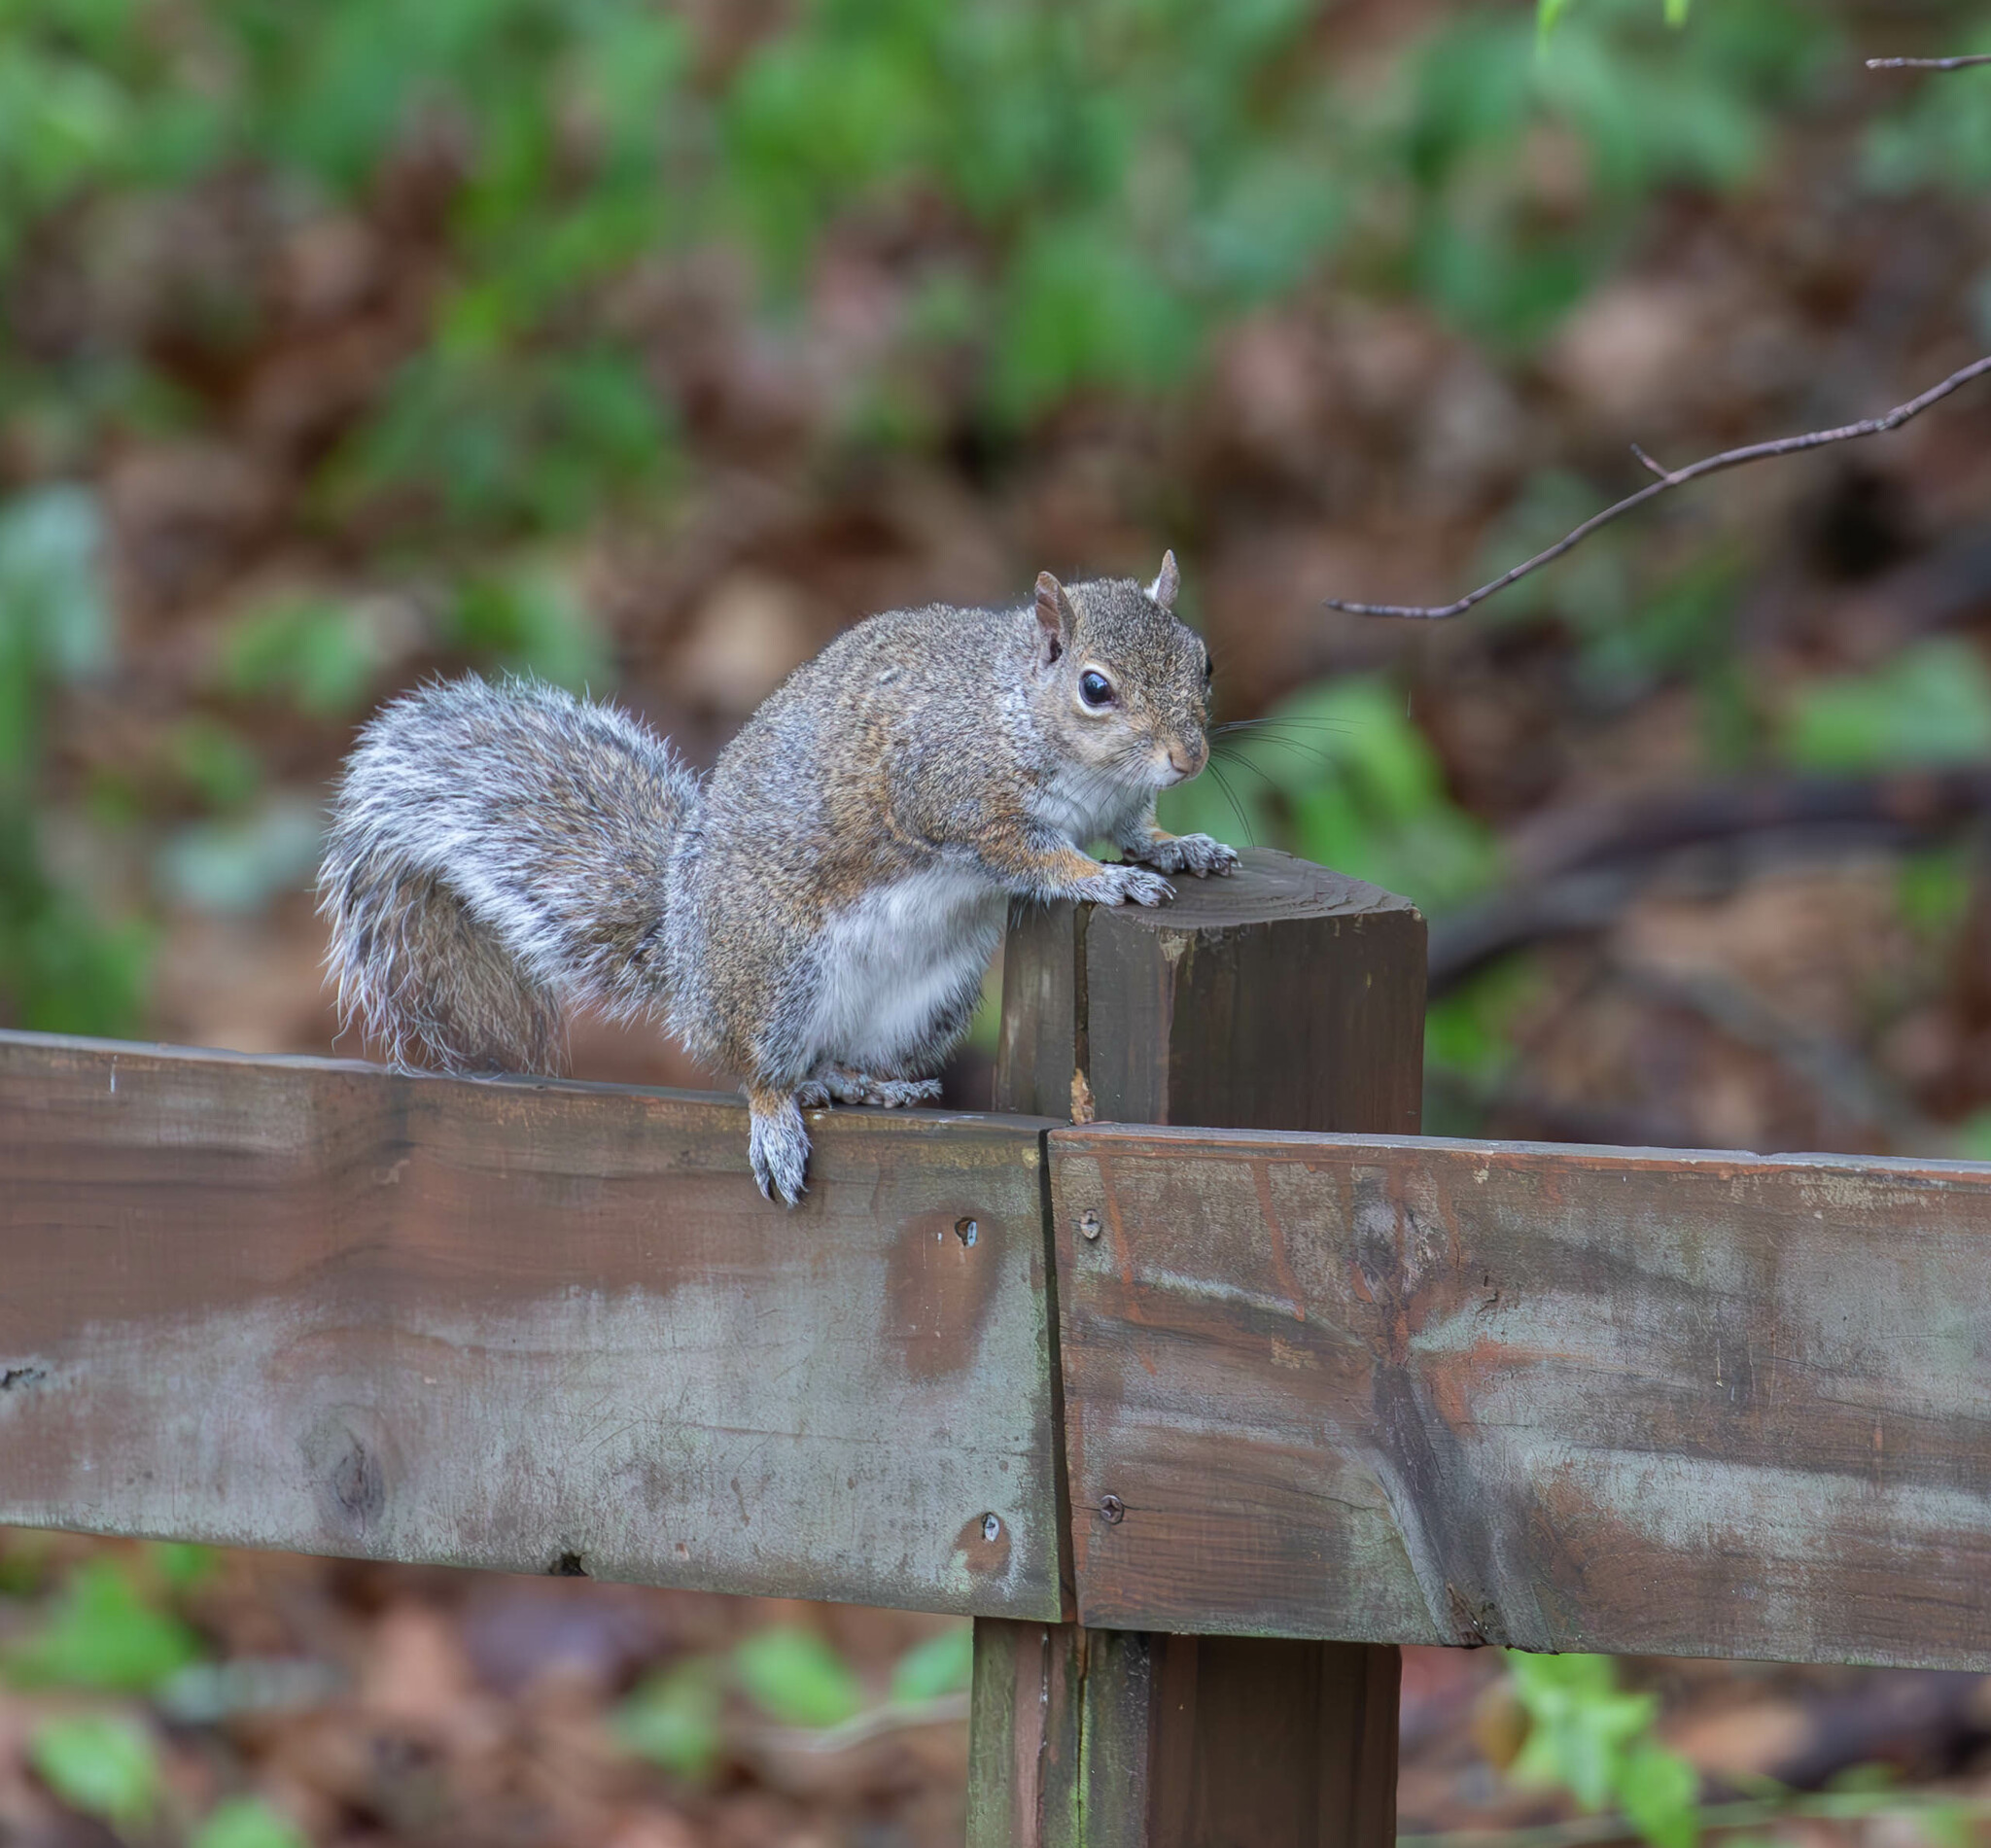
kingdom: Animalia
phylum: Chordata
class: Mammalia
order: Rodentia
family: Sciuridae
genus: Sciurus
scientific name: Sciurus carolinensis
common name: Eastern gray squirrel
